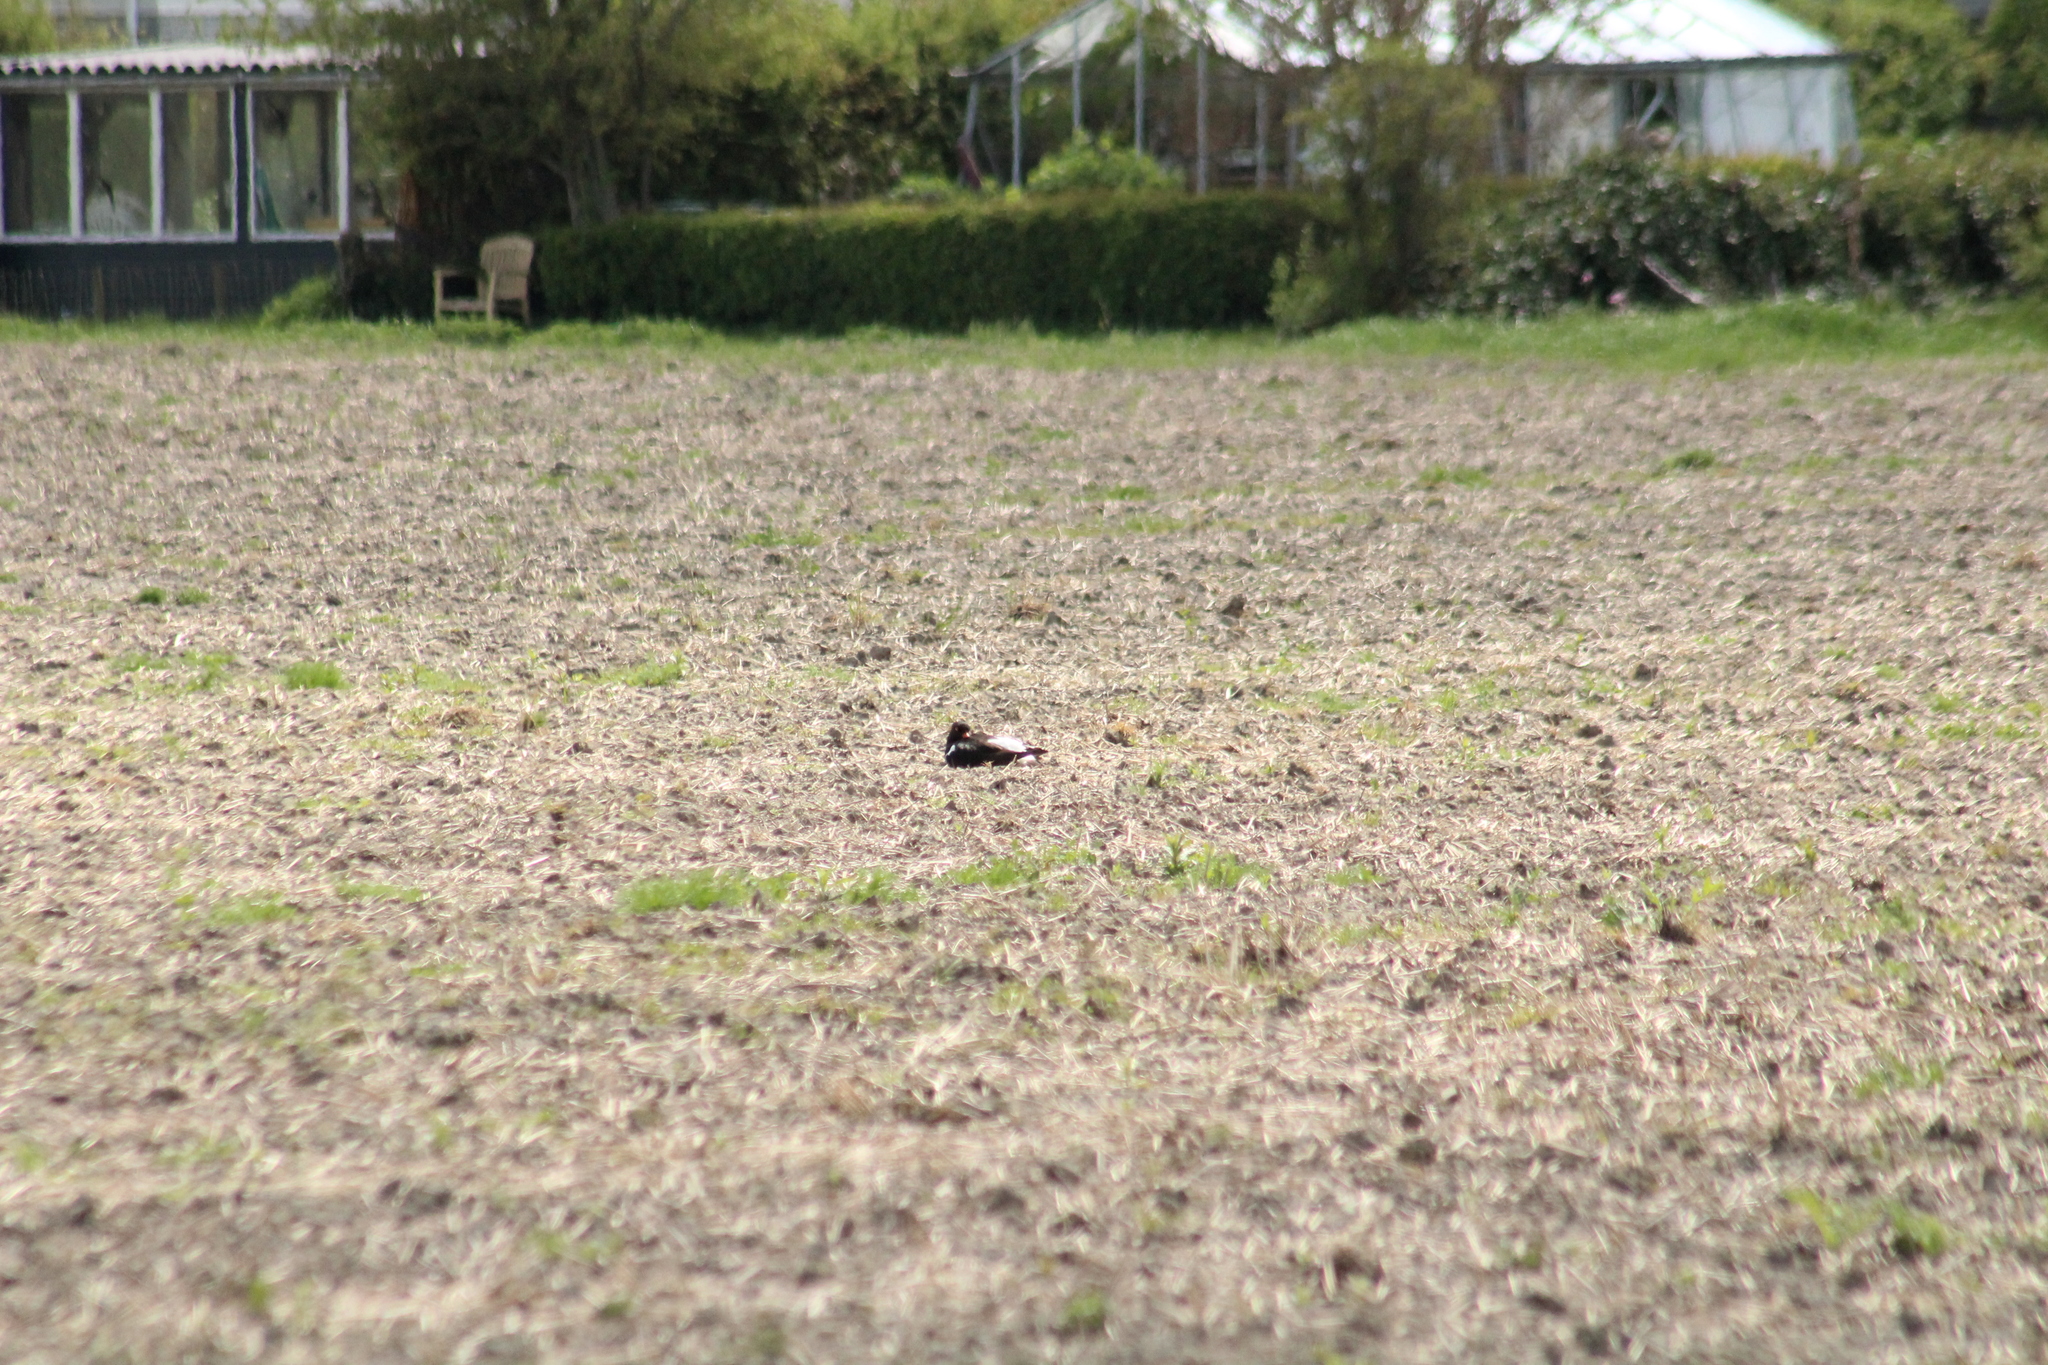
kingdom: Animalia
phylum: Chordata
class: Aves
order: Charadriiformes
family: Haematopodidae
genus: Haematopus
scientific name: Haematopus ostralegus
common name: Eurasian oystercatcher
